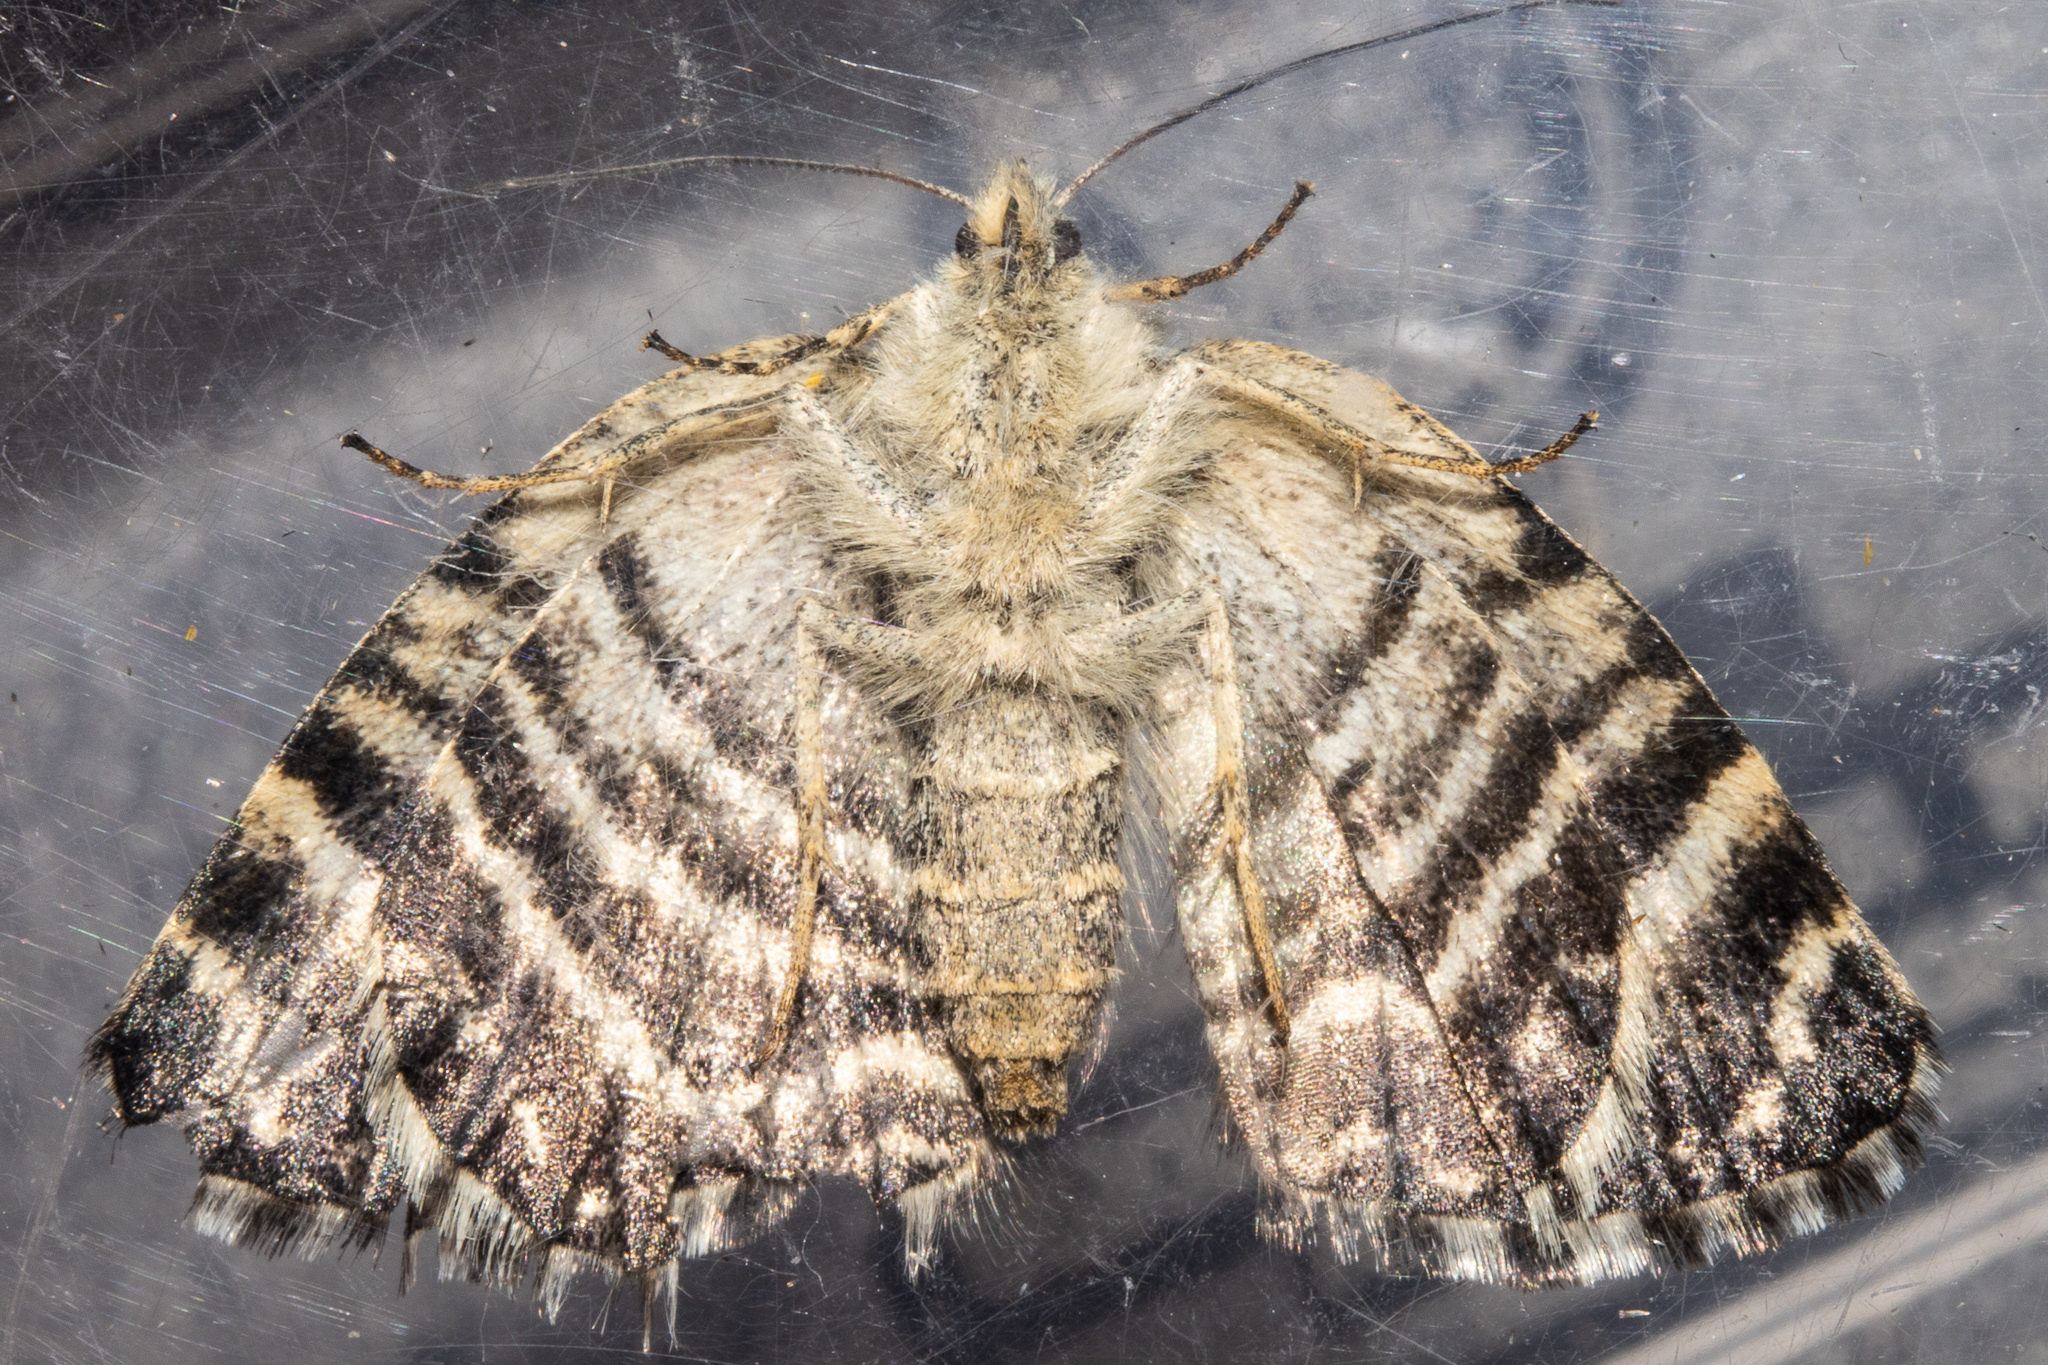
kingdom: Animalia
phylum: Arthropoda
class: Insecta
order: Lepidoptera
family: Geometridae
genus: Dasyuris
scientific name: Dasyuris hectori
